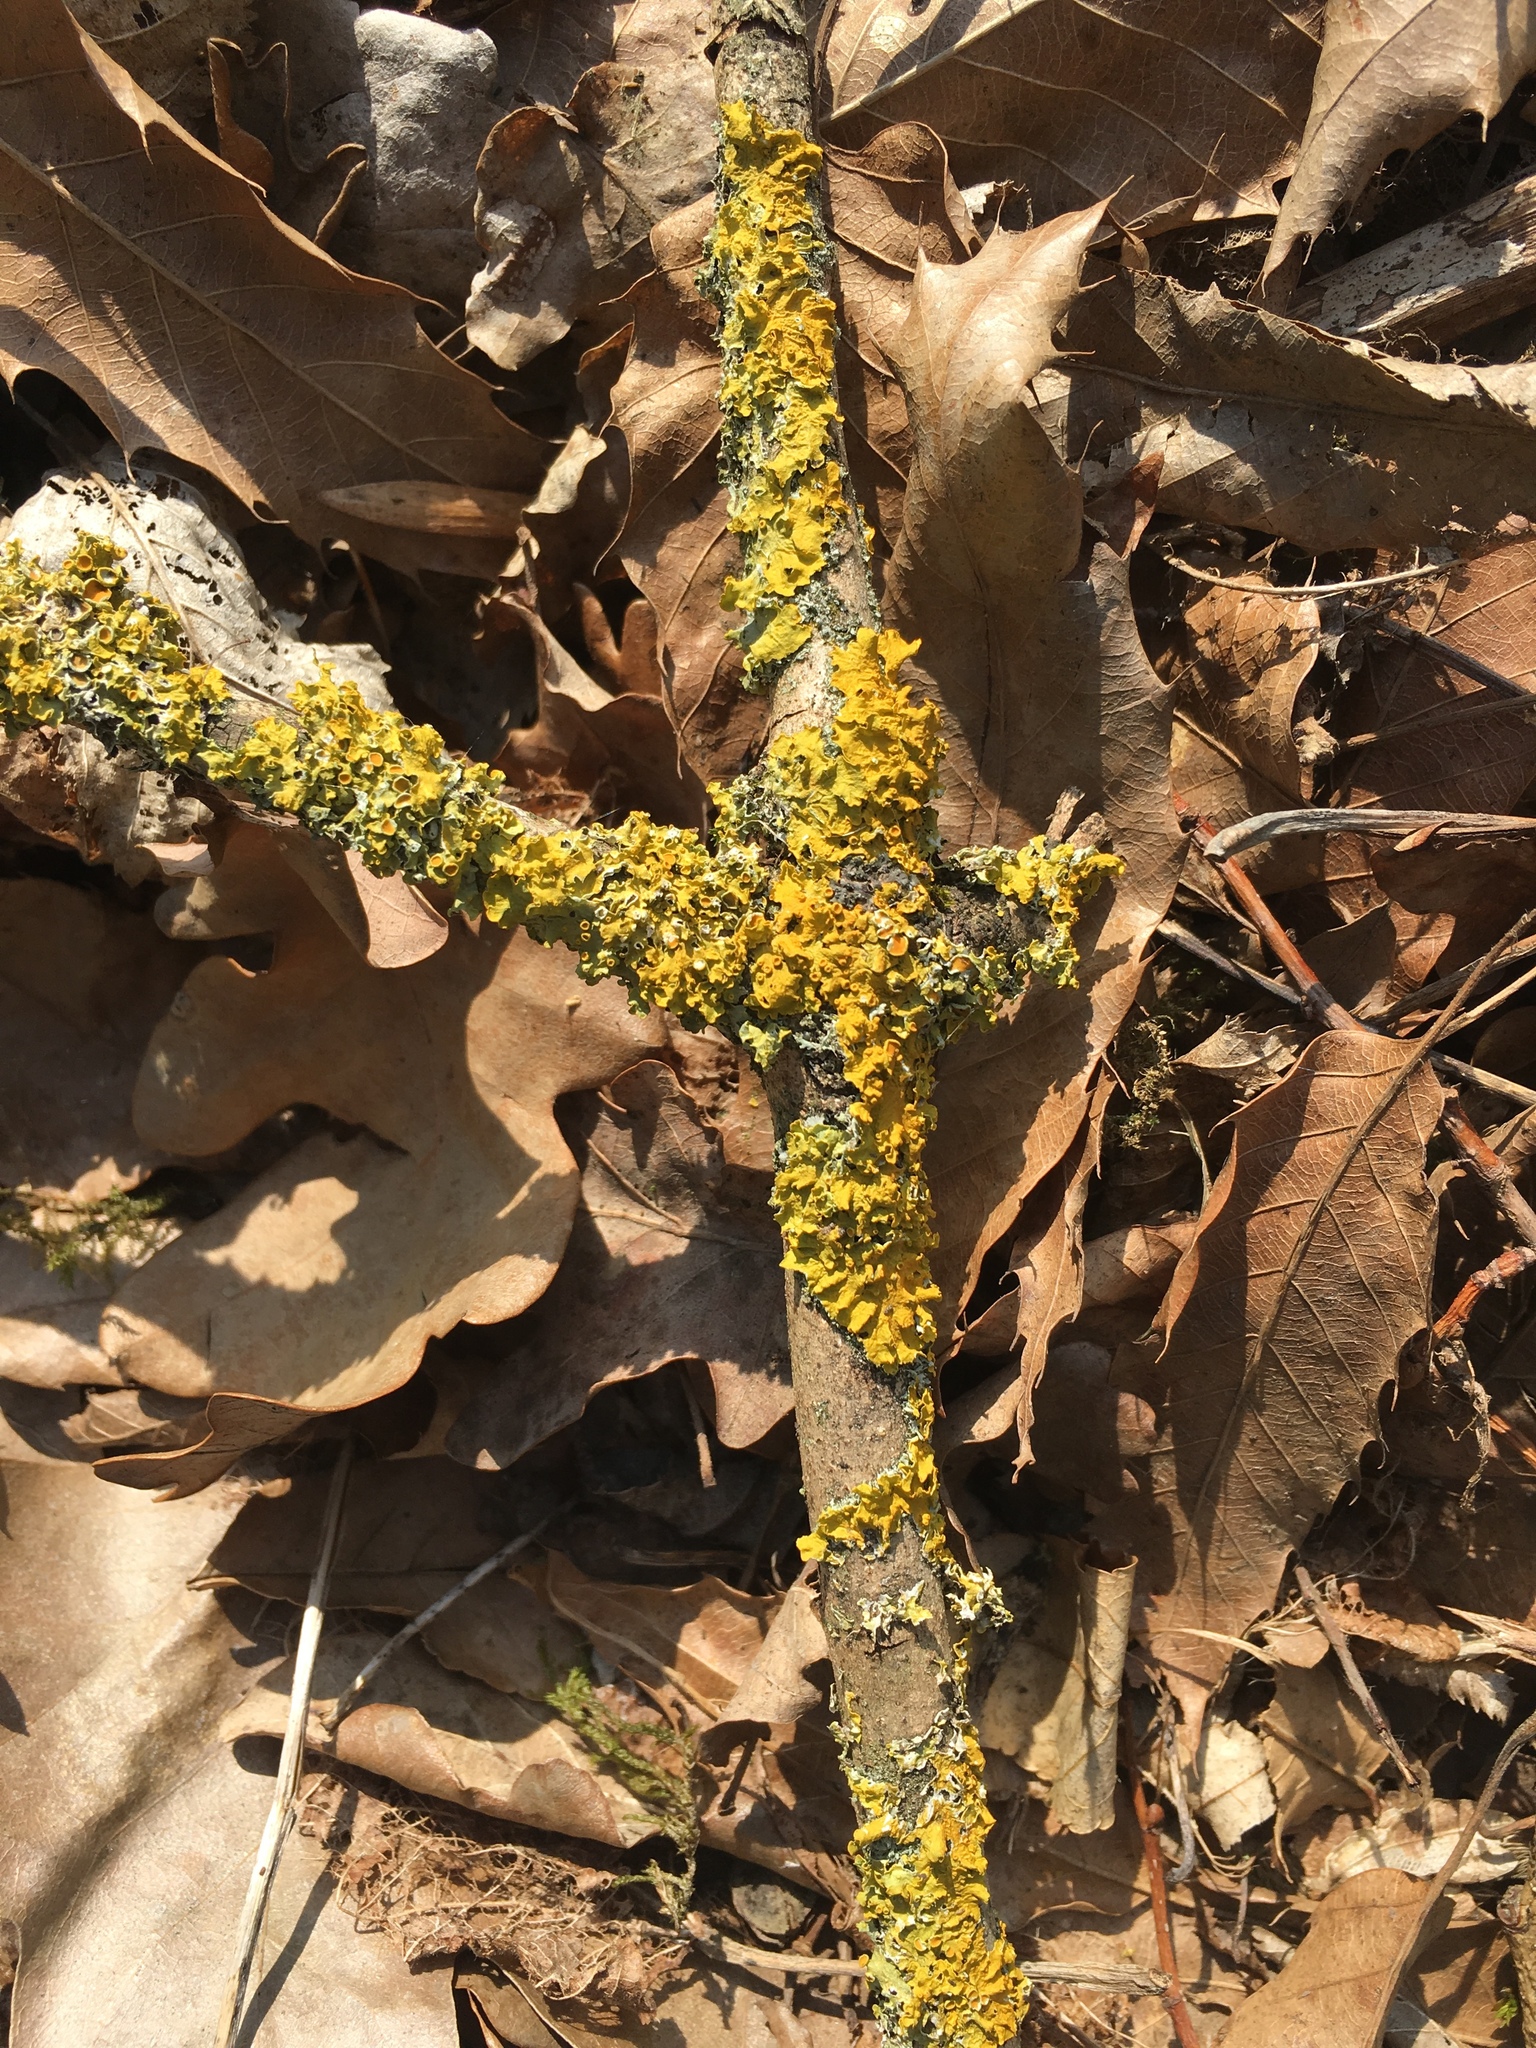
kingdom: Fungi
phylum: Ascomycota
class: Lecanoromycetes
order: Teloschistales
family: Teloschistaceae
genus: Xanthoria
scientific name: Xanthoria parietina
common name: Common orange lichen
